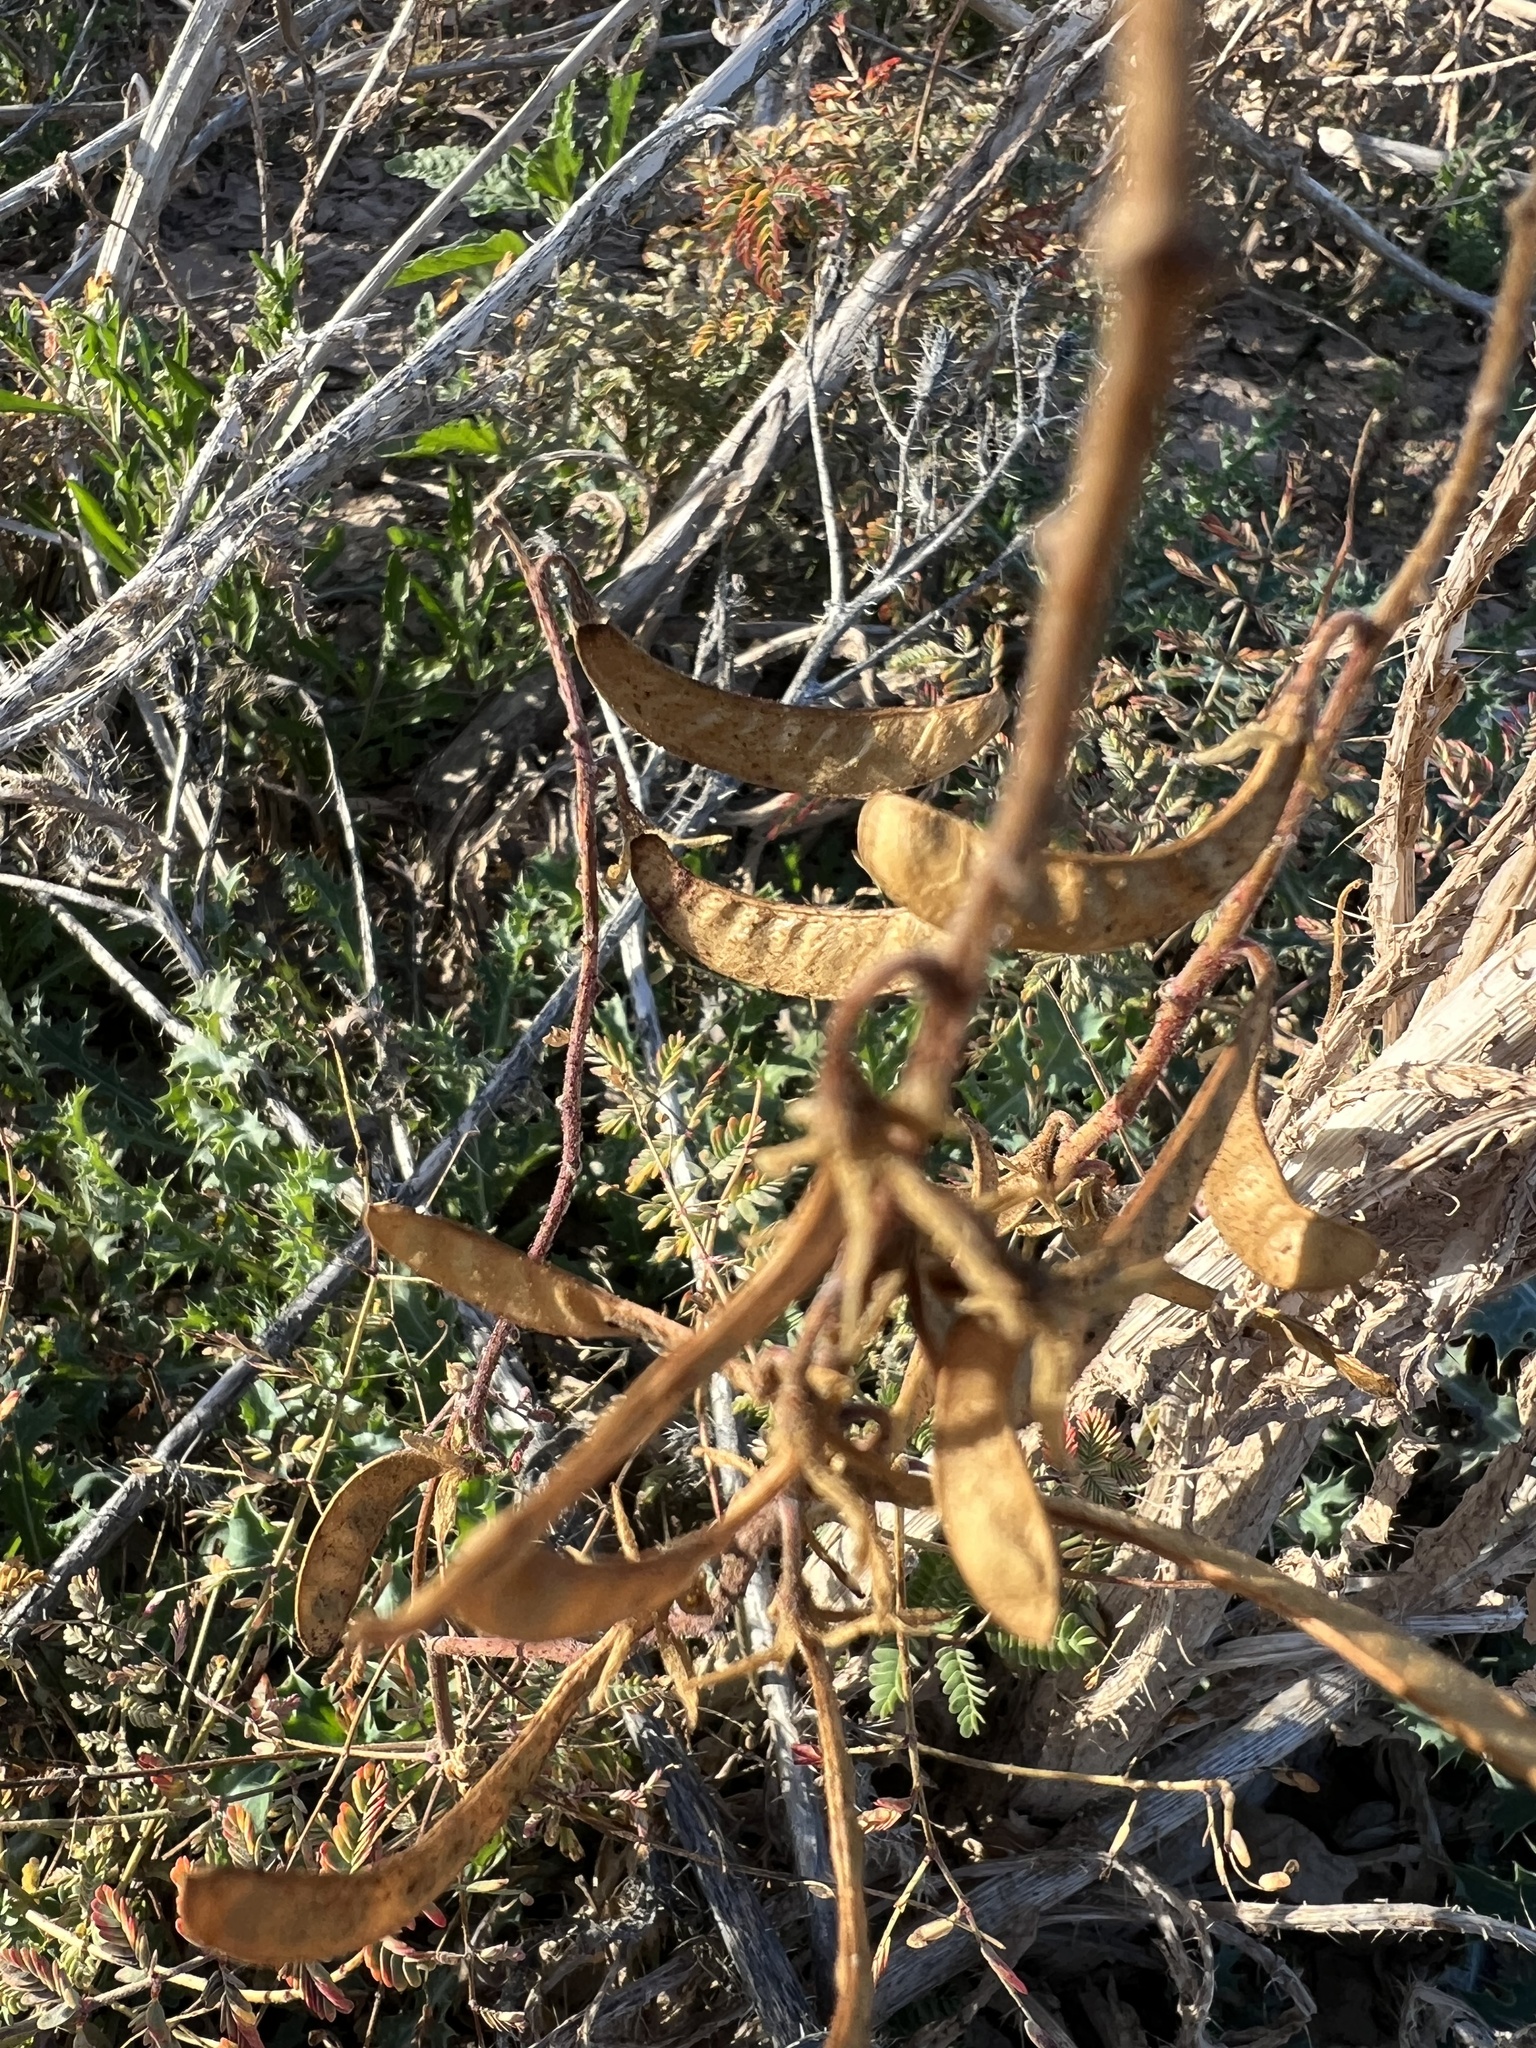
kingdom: Plantae
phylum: Tracheophyta
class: Magnoliopsida
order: Fabales
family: Fabaceae
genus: Hoffmannseggia
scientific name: Hoffmannseggia glauca
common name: Pignut
